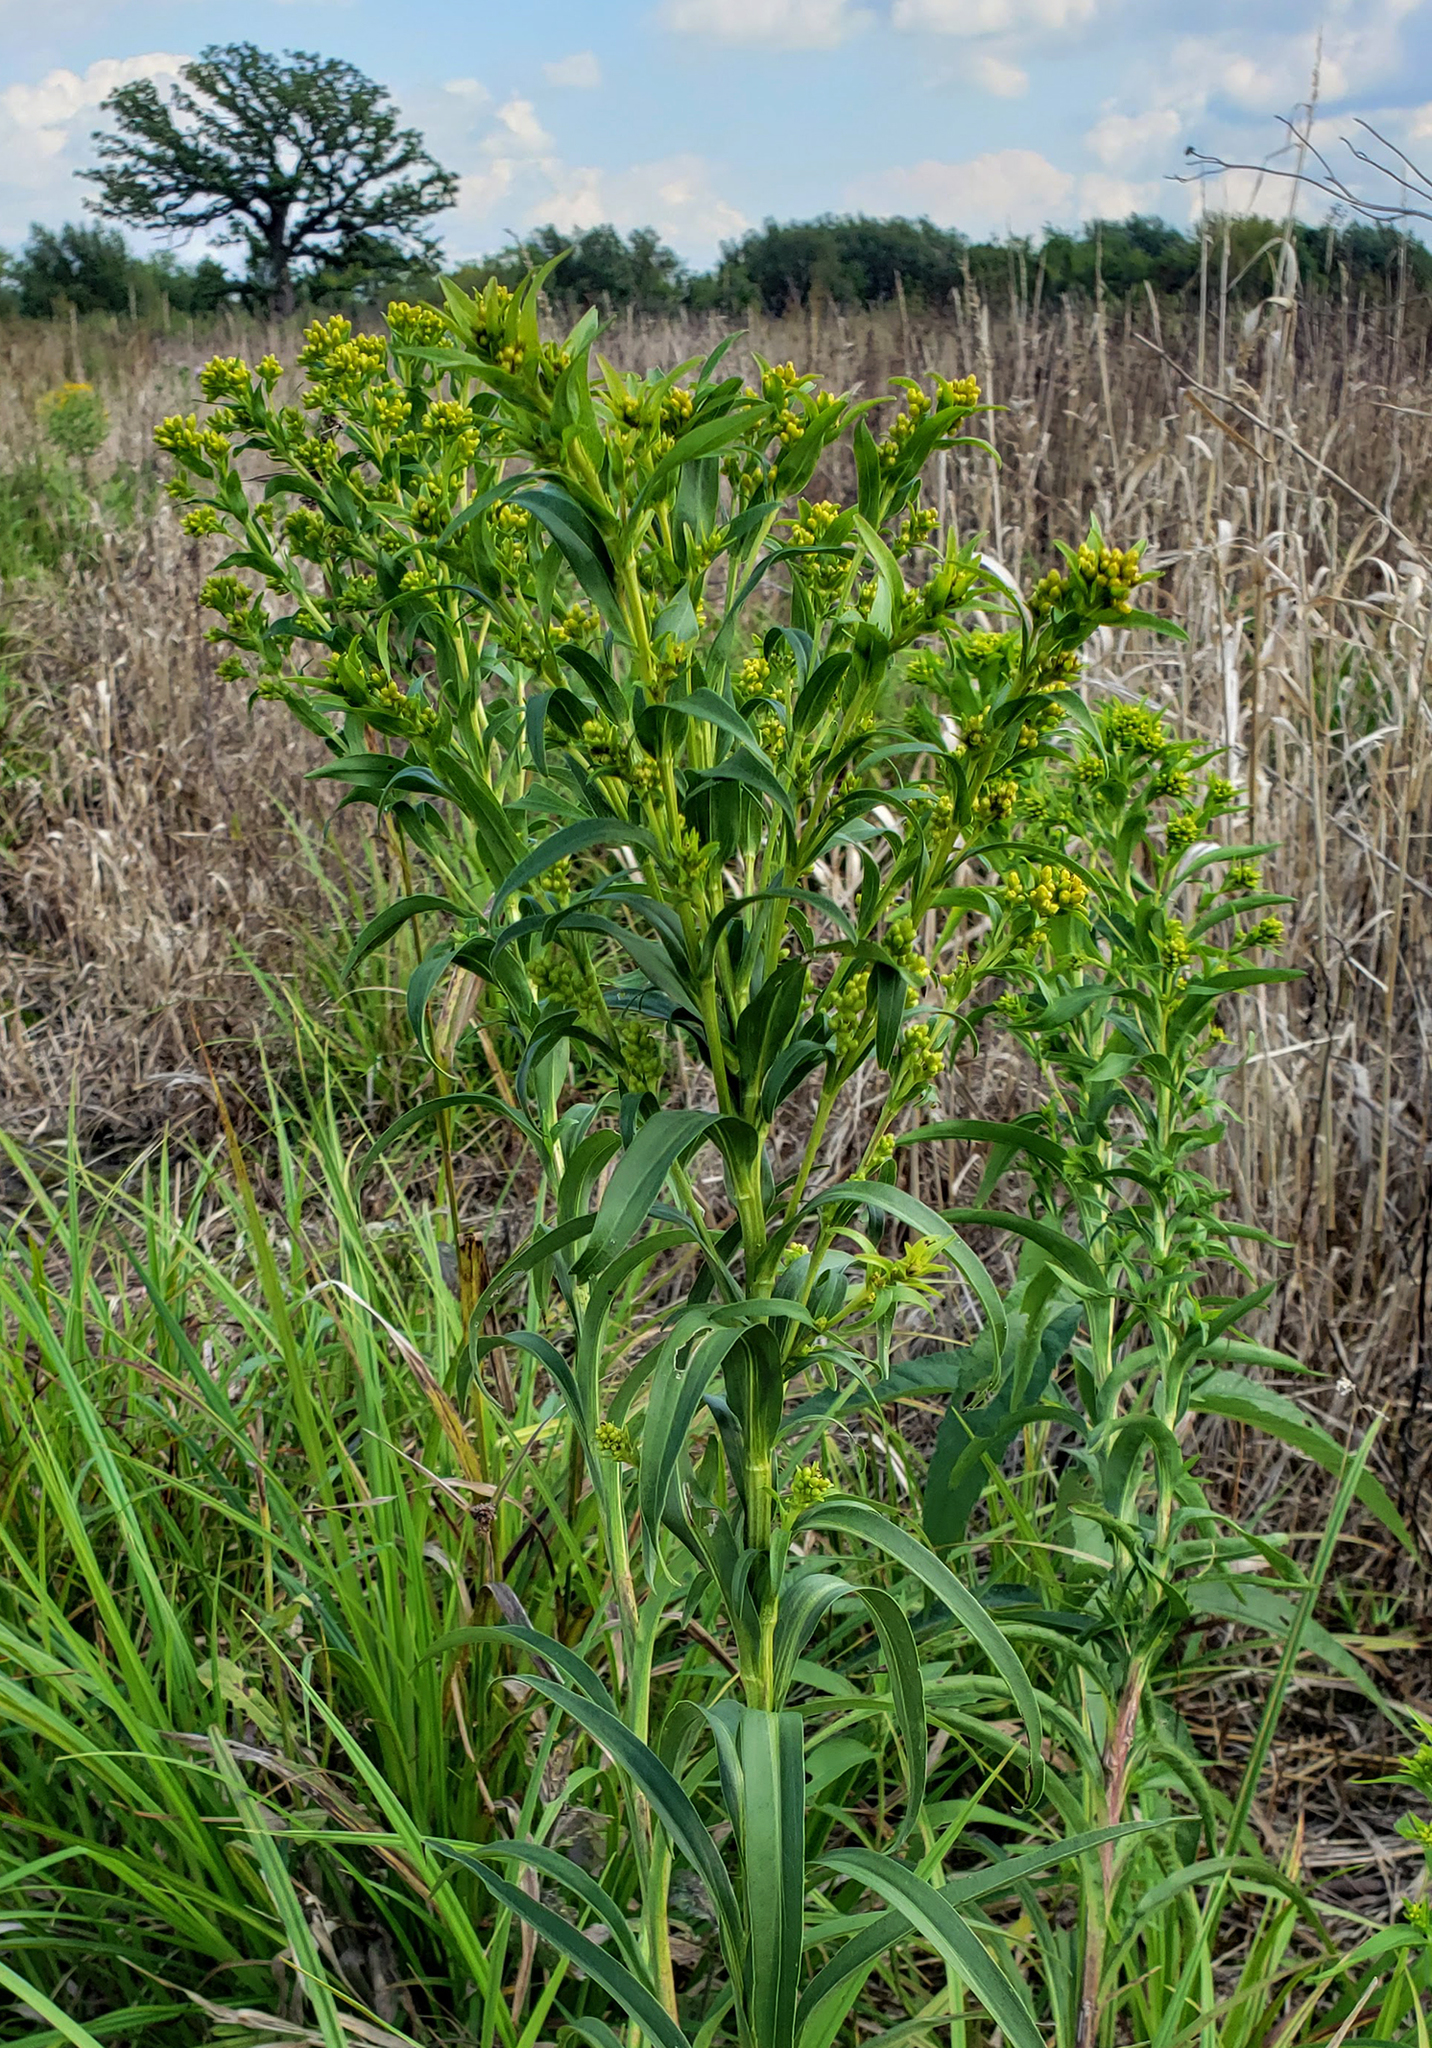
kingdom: Plantae
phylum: Tracheophyta
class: Magnoliopsida
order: Asterales
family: Asteraceae
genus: Solidago
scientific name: Solidago riddellii
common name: Riddell's goldenrod
